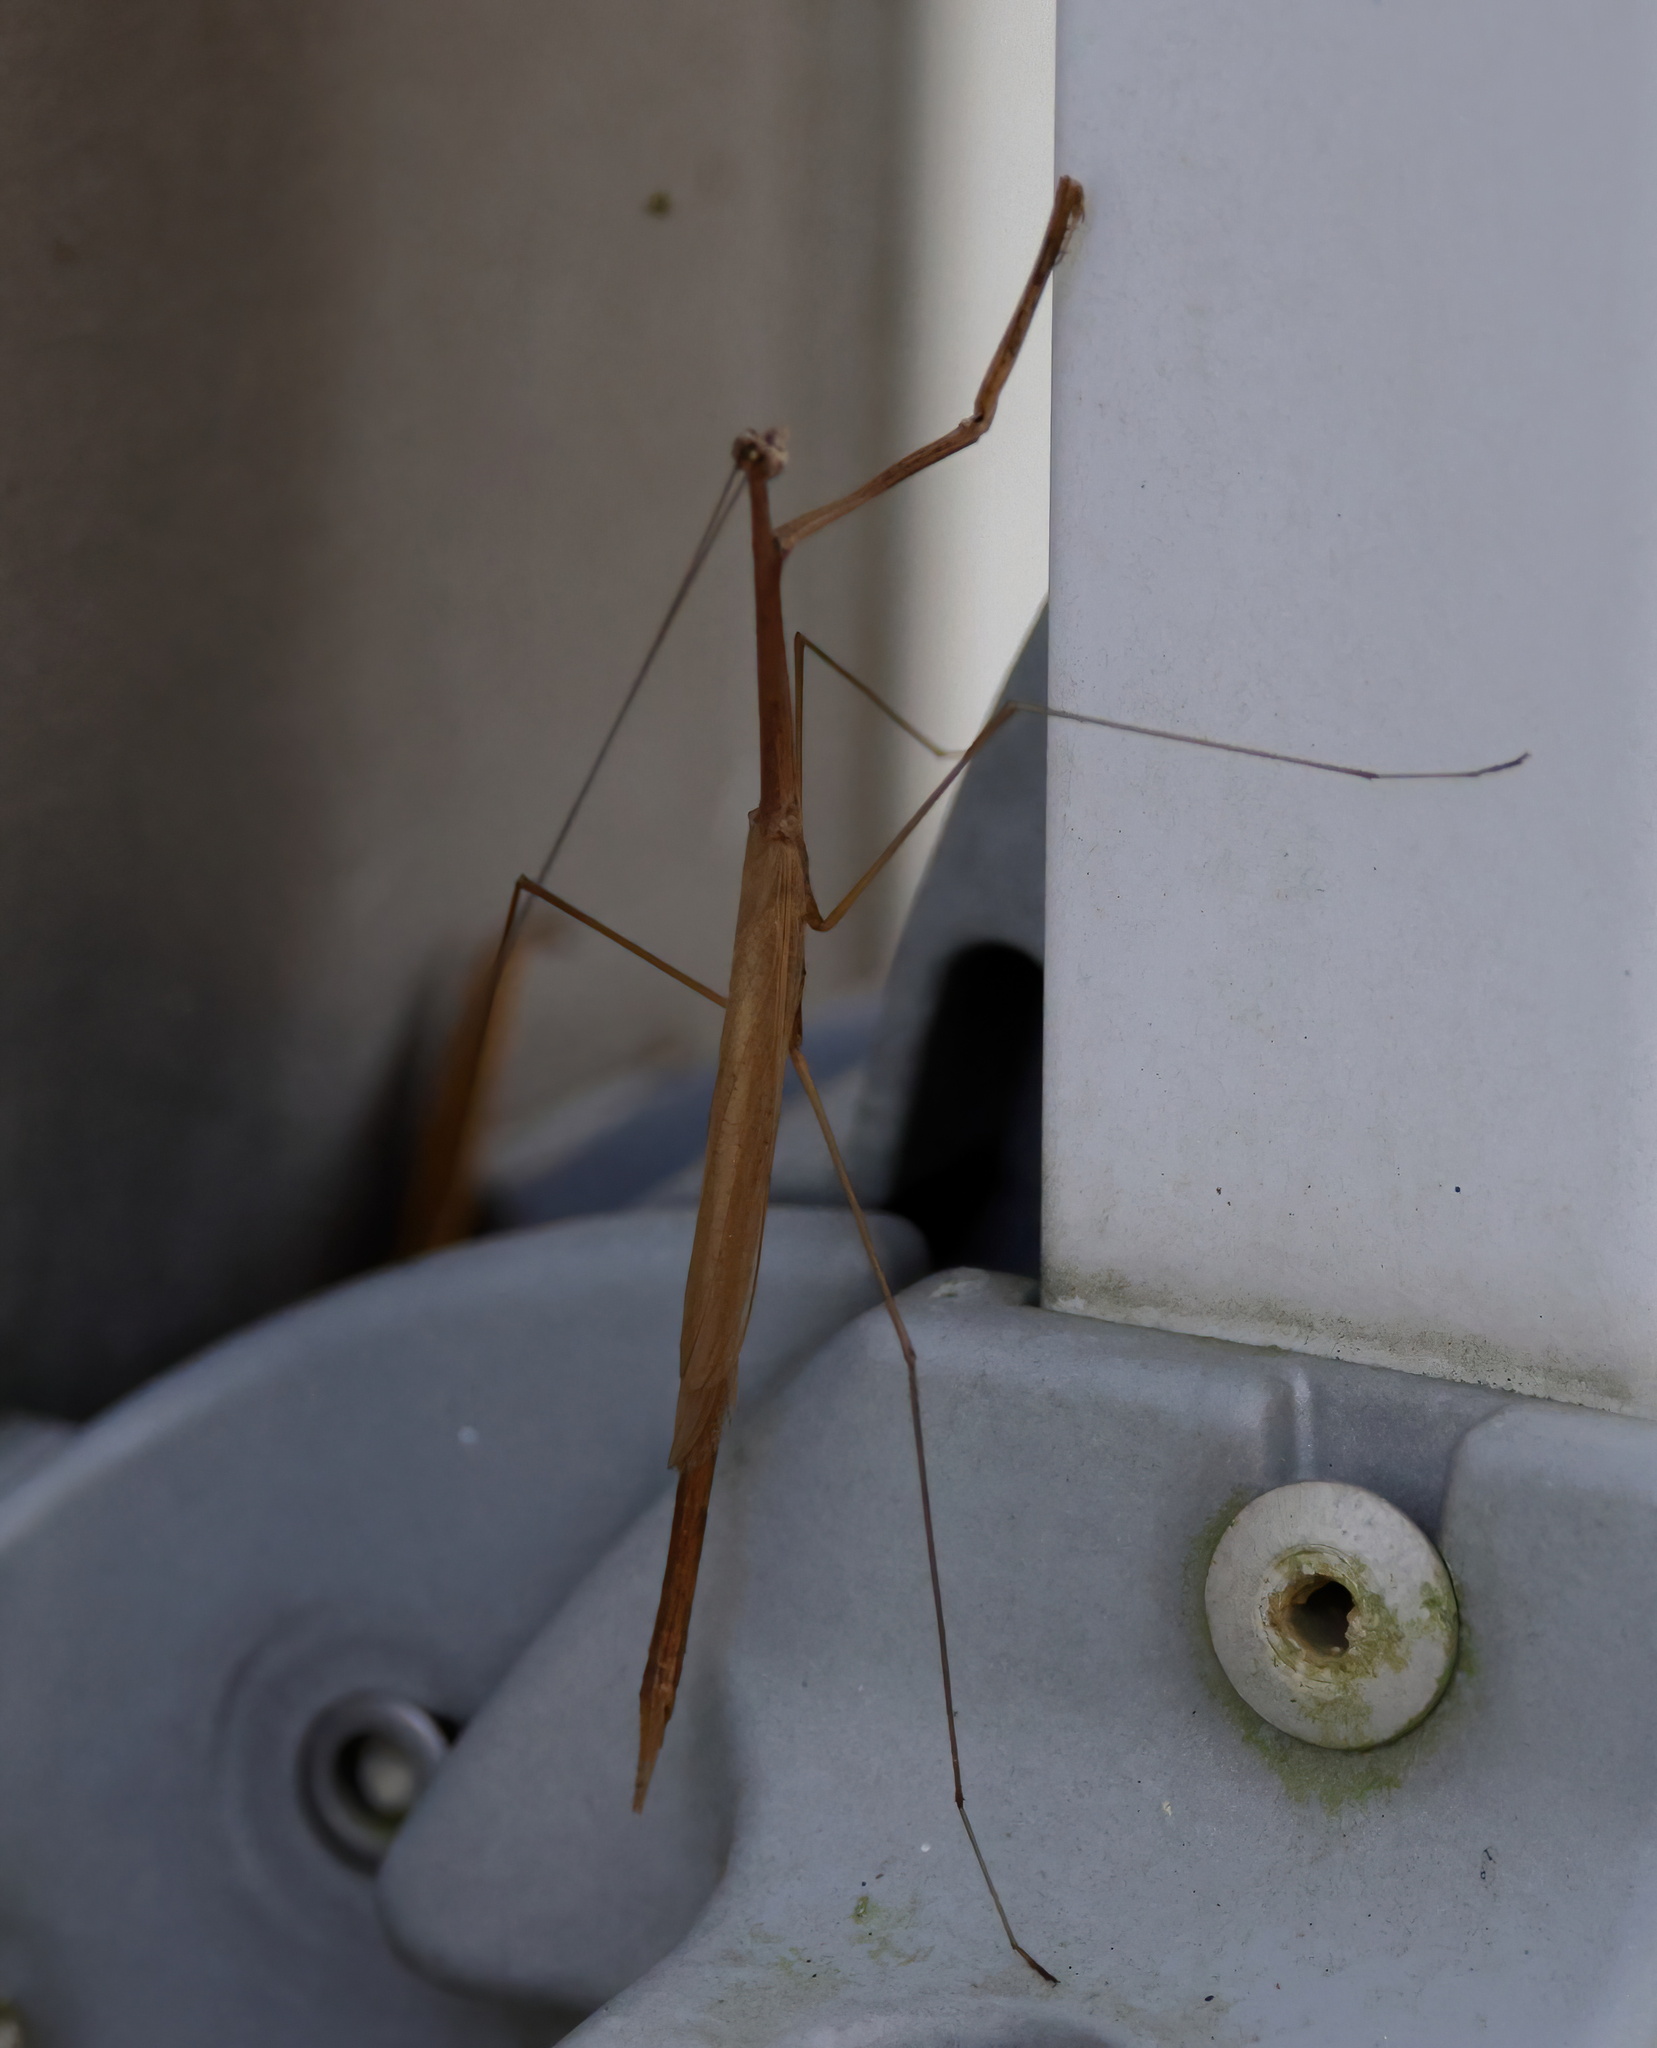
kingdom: Animalia
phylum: Arthropoda
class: Insecta
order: Mantodea
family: Thespidae
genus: Thesprotia
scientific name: Thesprotia graminis
